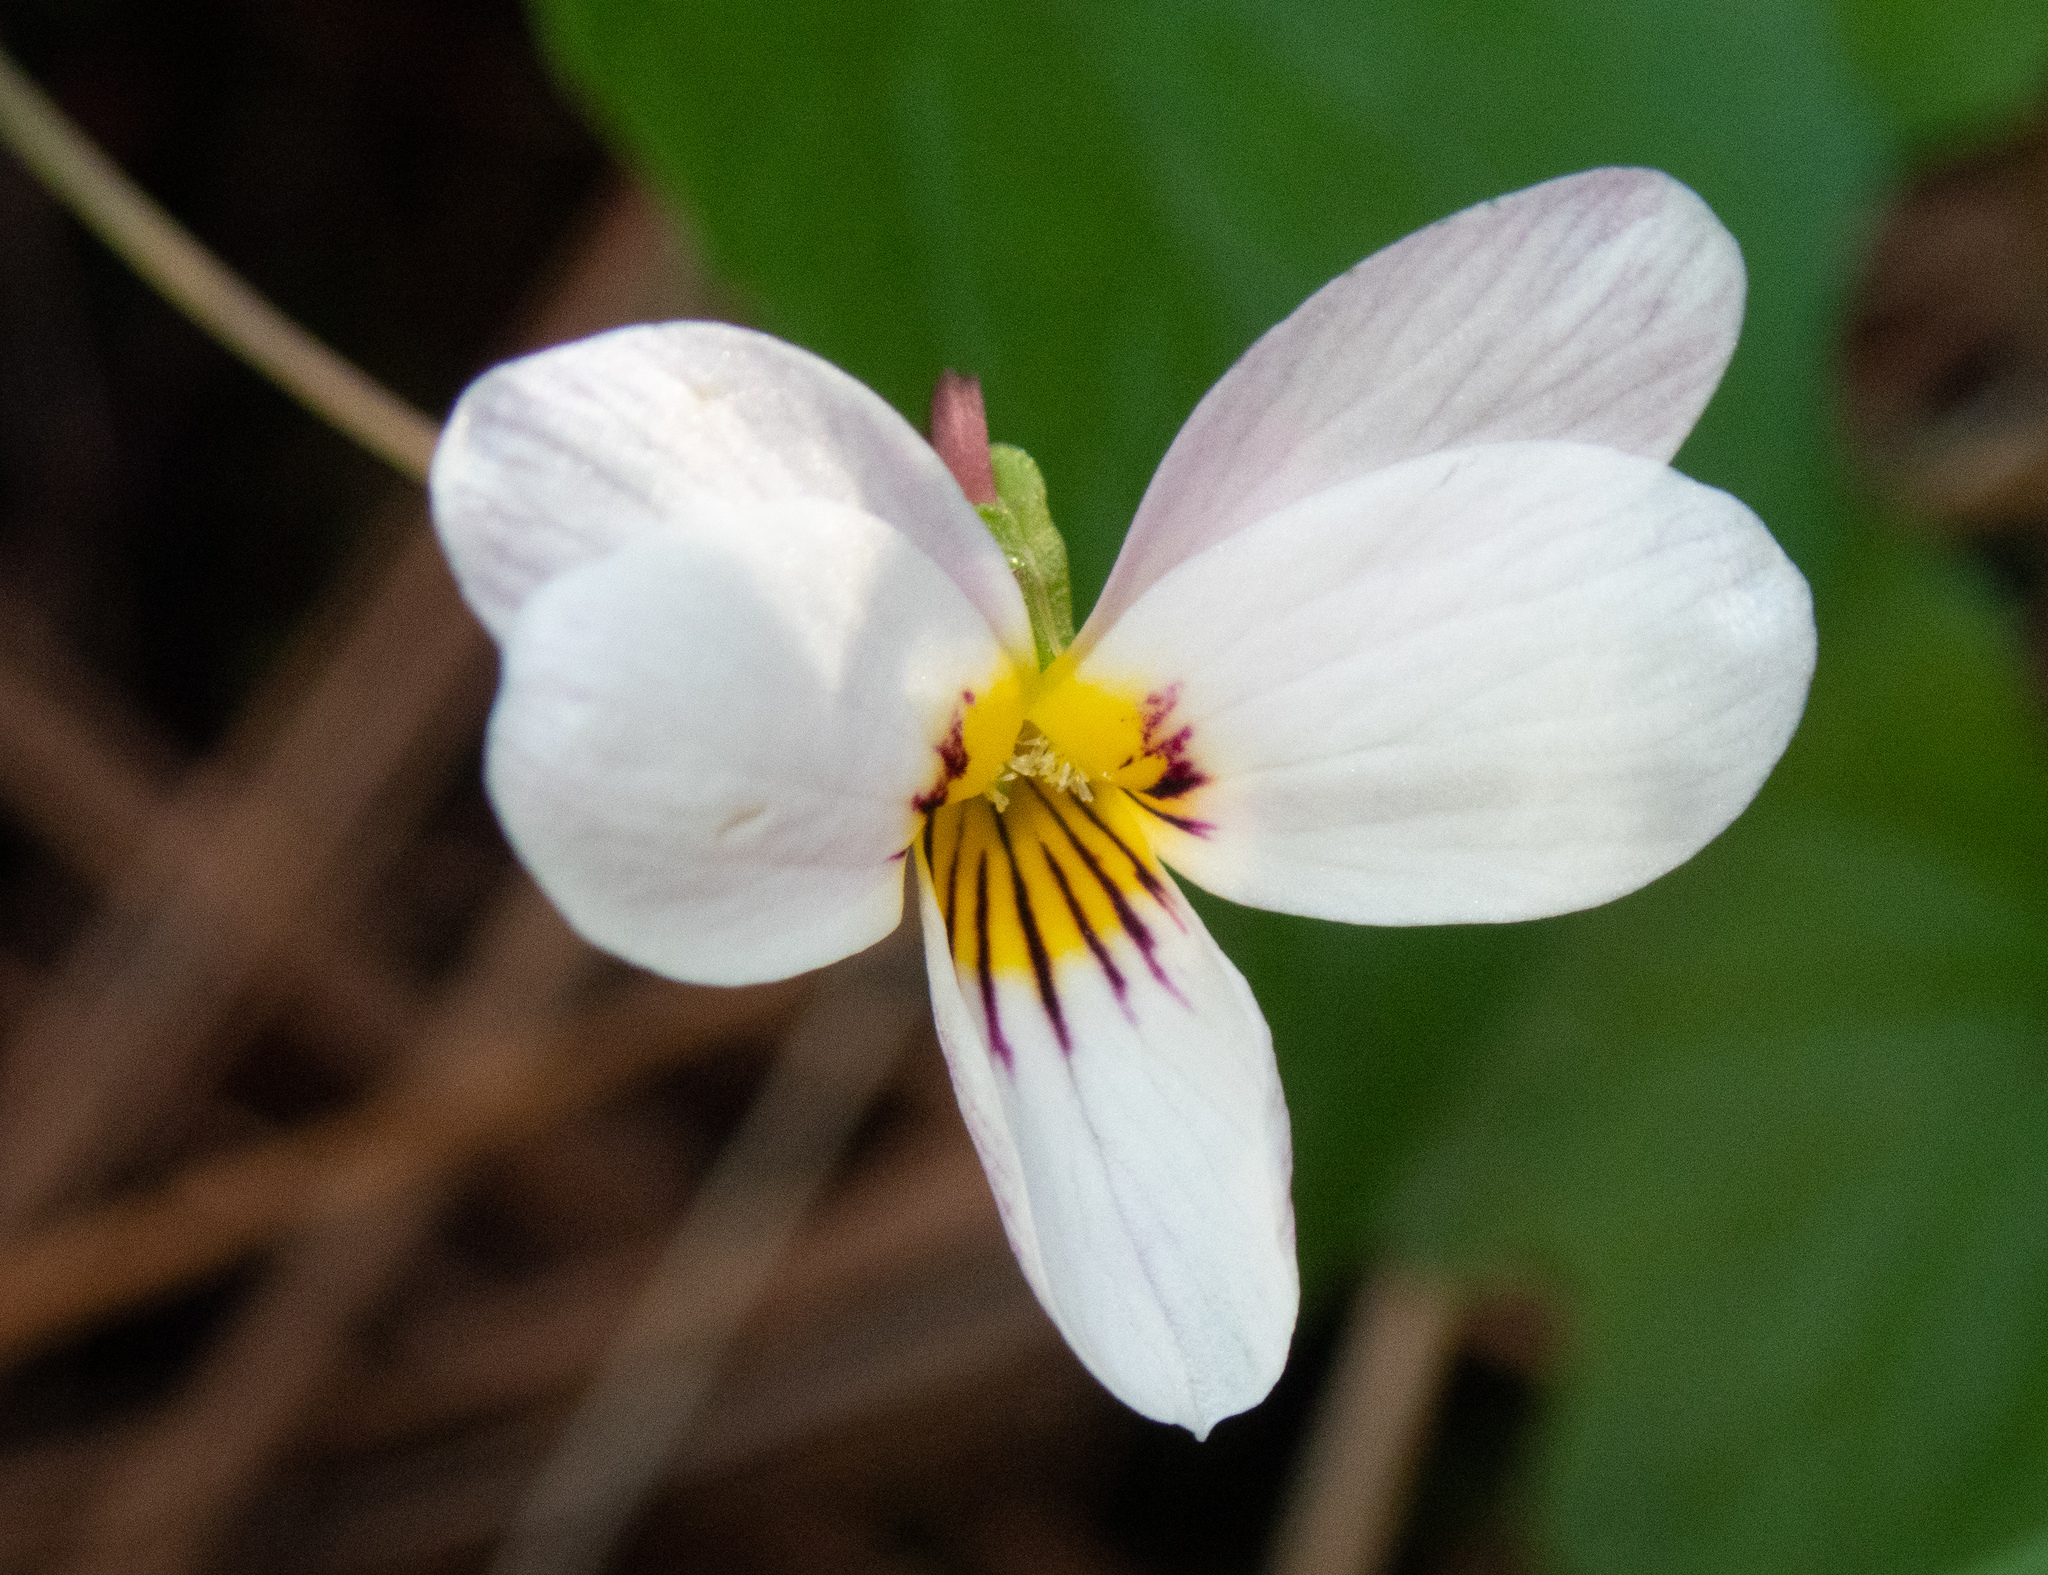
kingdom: Plantae
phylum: Tracheophyta
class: Magnoliopsida
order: Malpighiales
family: Violaceae
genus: Viola
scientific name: Viola ocellata
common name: Western heart's ease
